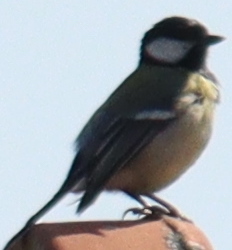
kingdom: Animalia
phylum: Chordata
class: Aves
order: Passeriformes
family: Paridae
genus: Parus
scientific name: Parus major
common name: Great tit
